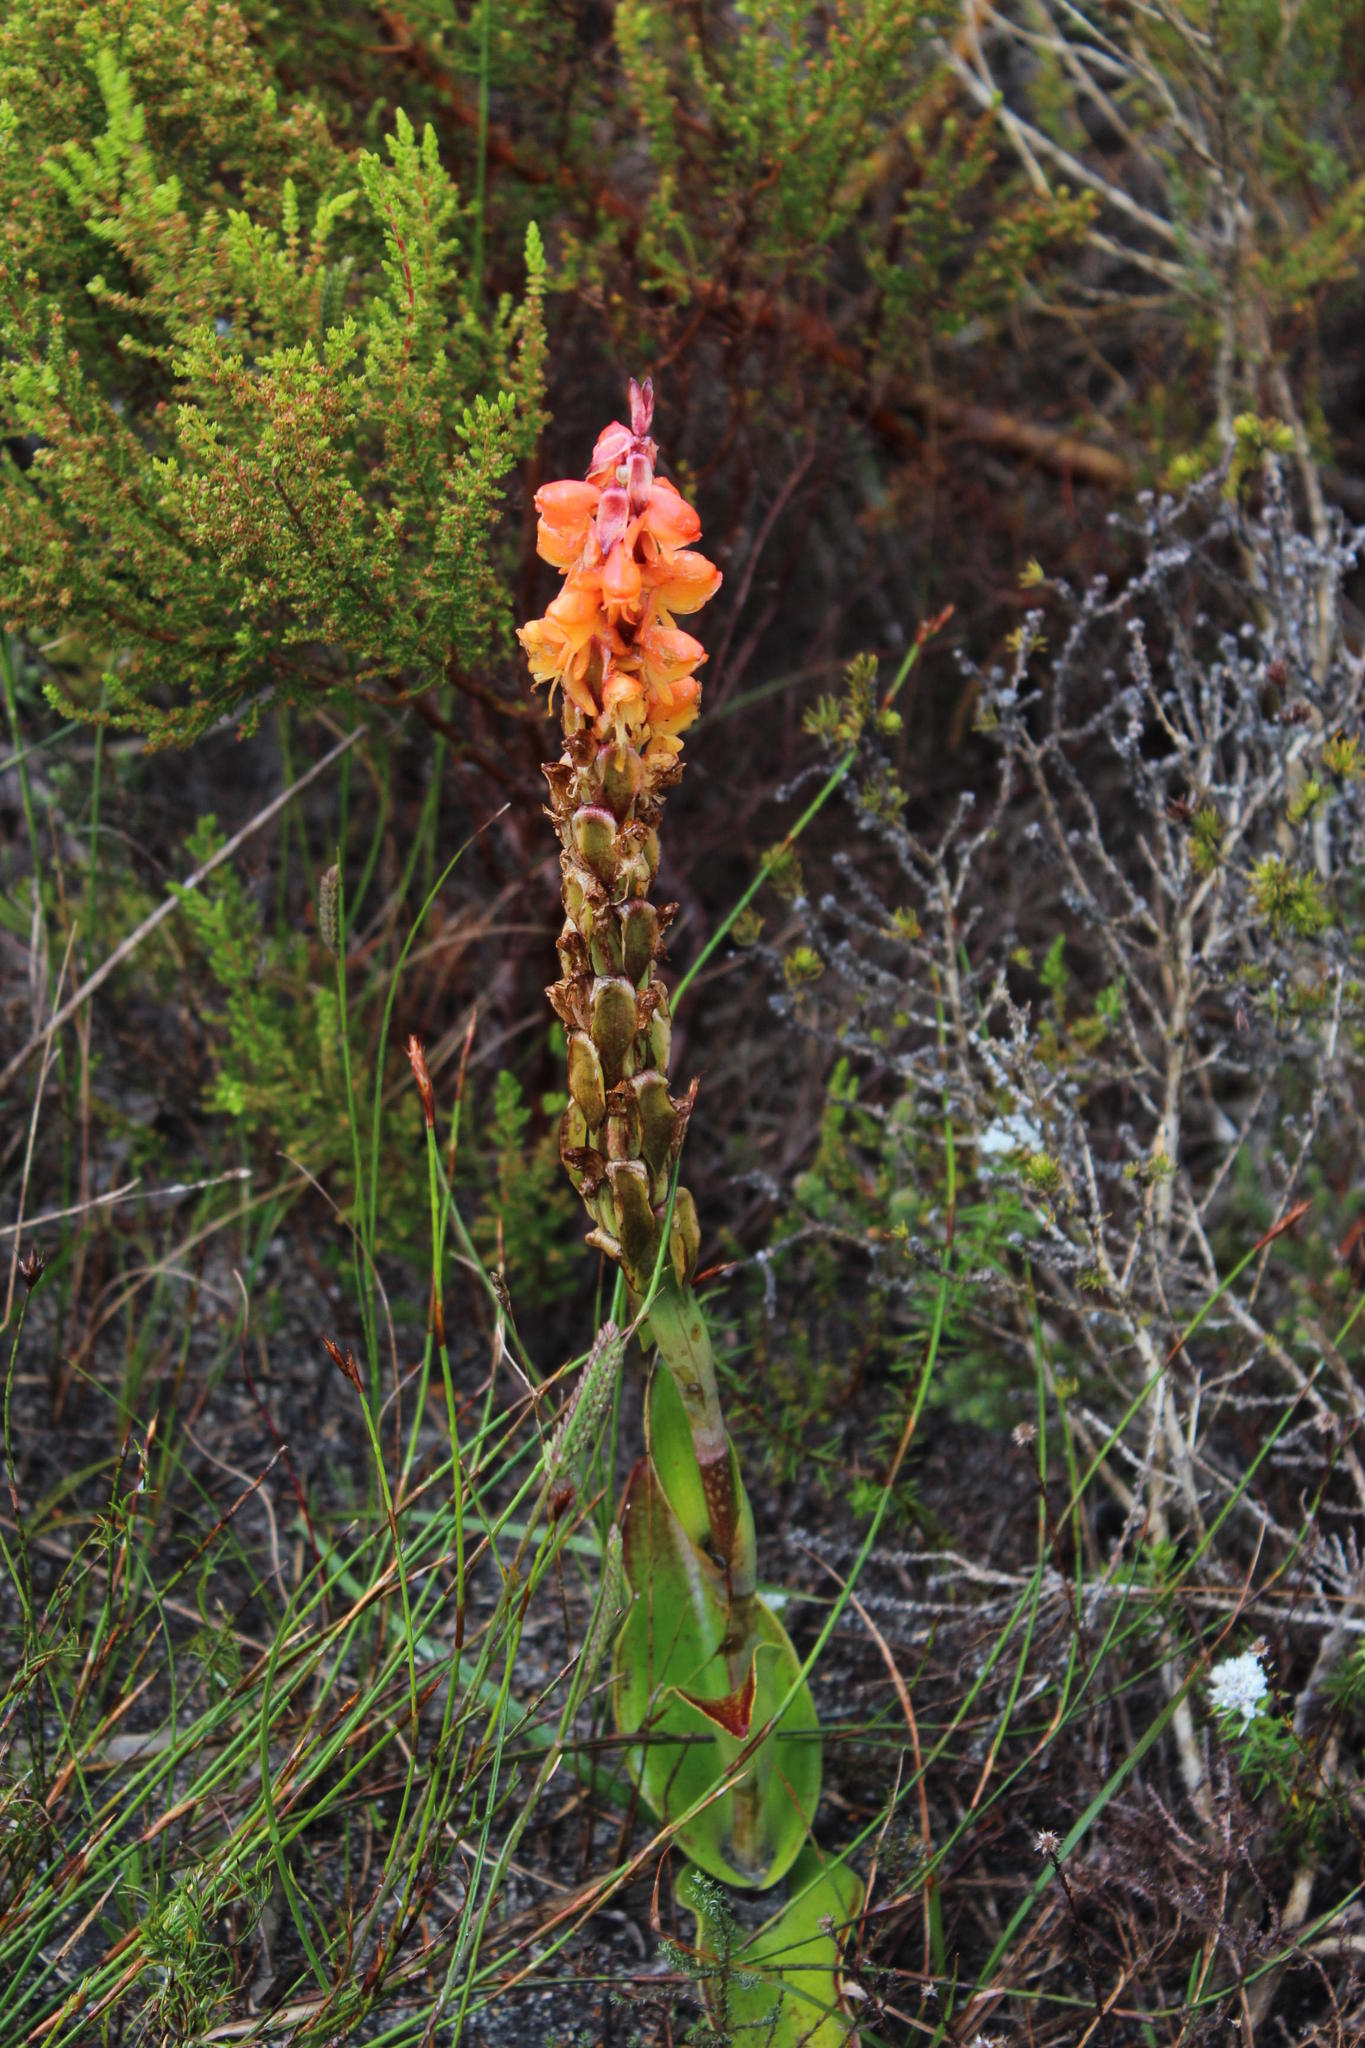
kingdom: Plantae
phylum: Tracheophyta
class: Liliopsida
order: Asparagales
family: Orchidaceae
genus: Satyrium
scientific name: Satyrium coriifolium
